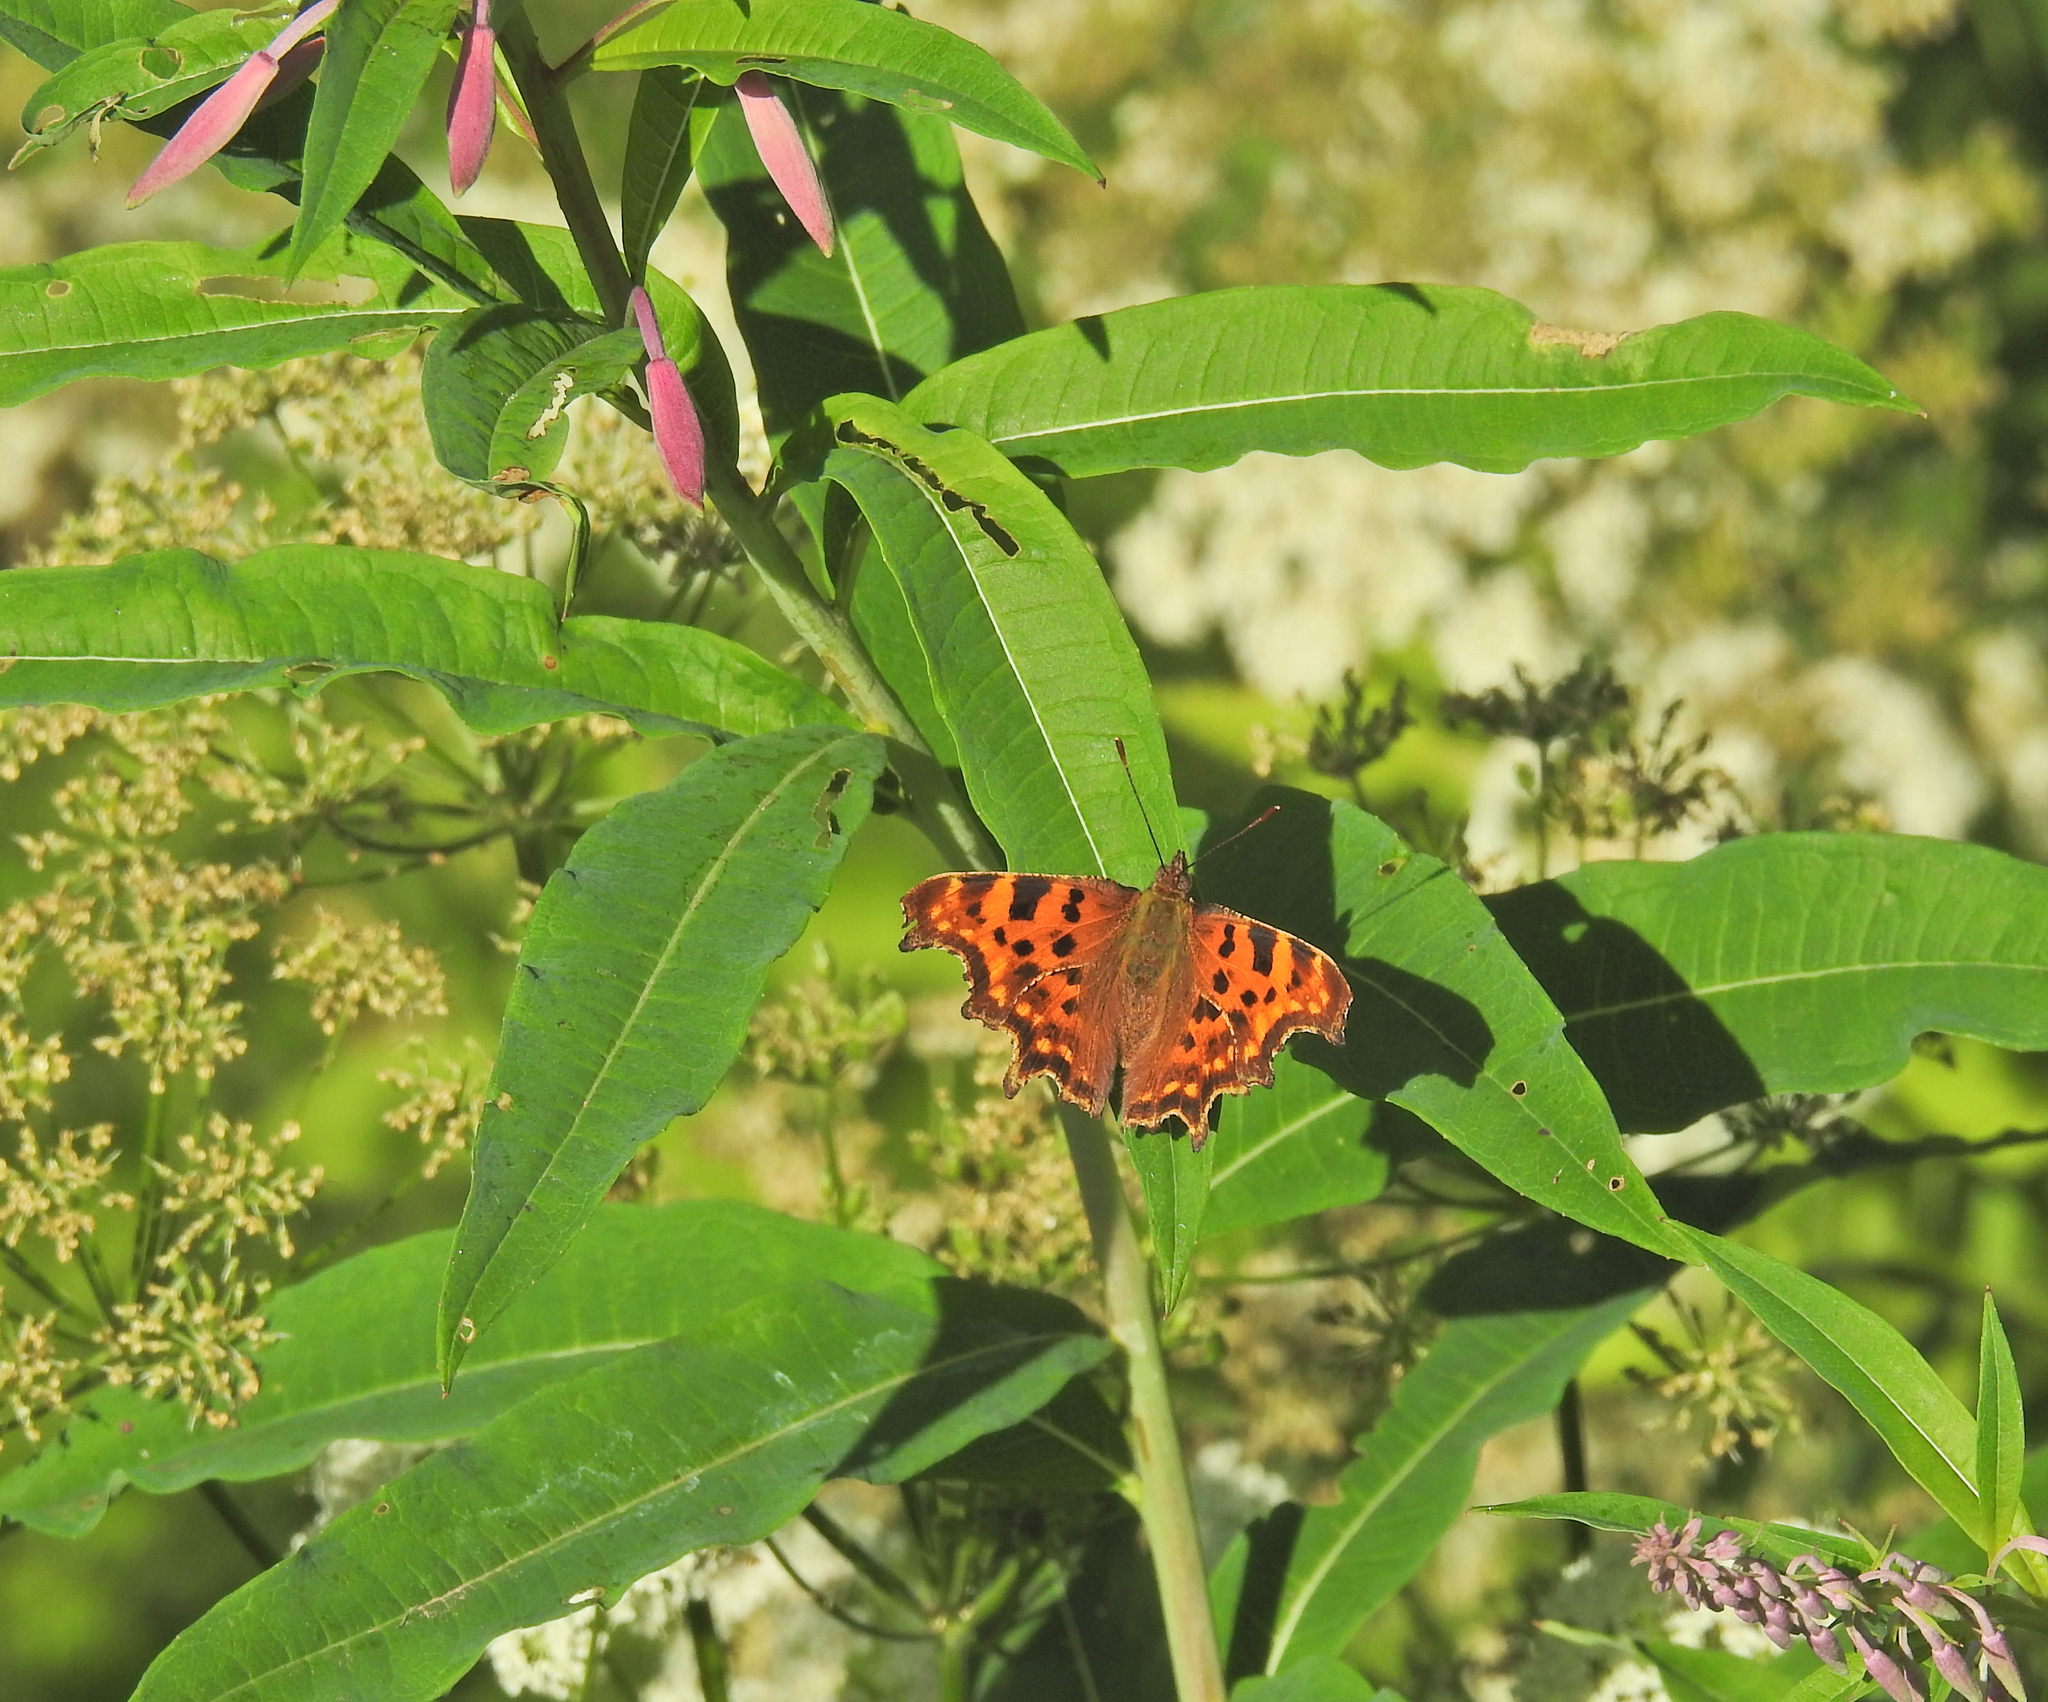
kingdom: Animalia
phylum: Arthropoda
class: Insecta
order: Lepidoptera
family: Nymphalidae
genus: Polygonia
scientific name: Polygonia c-album
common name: Comma
